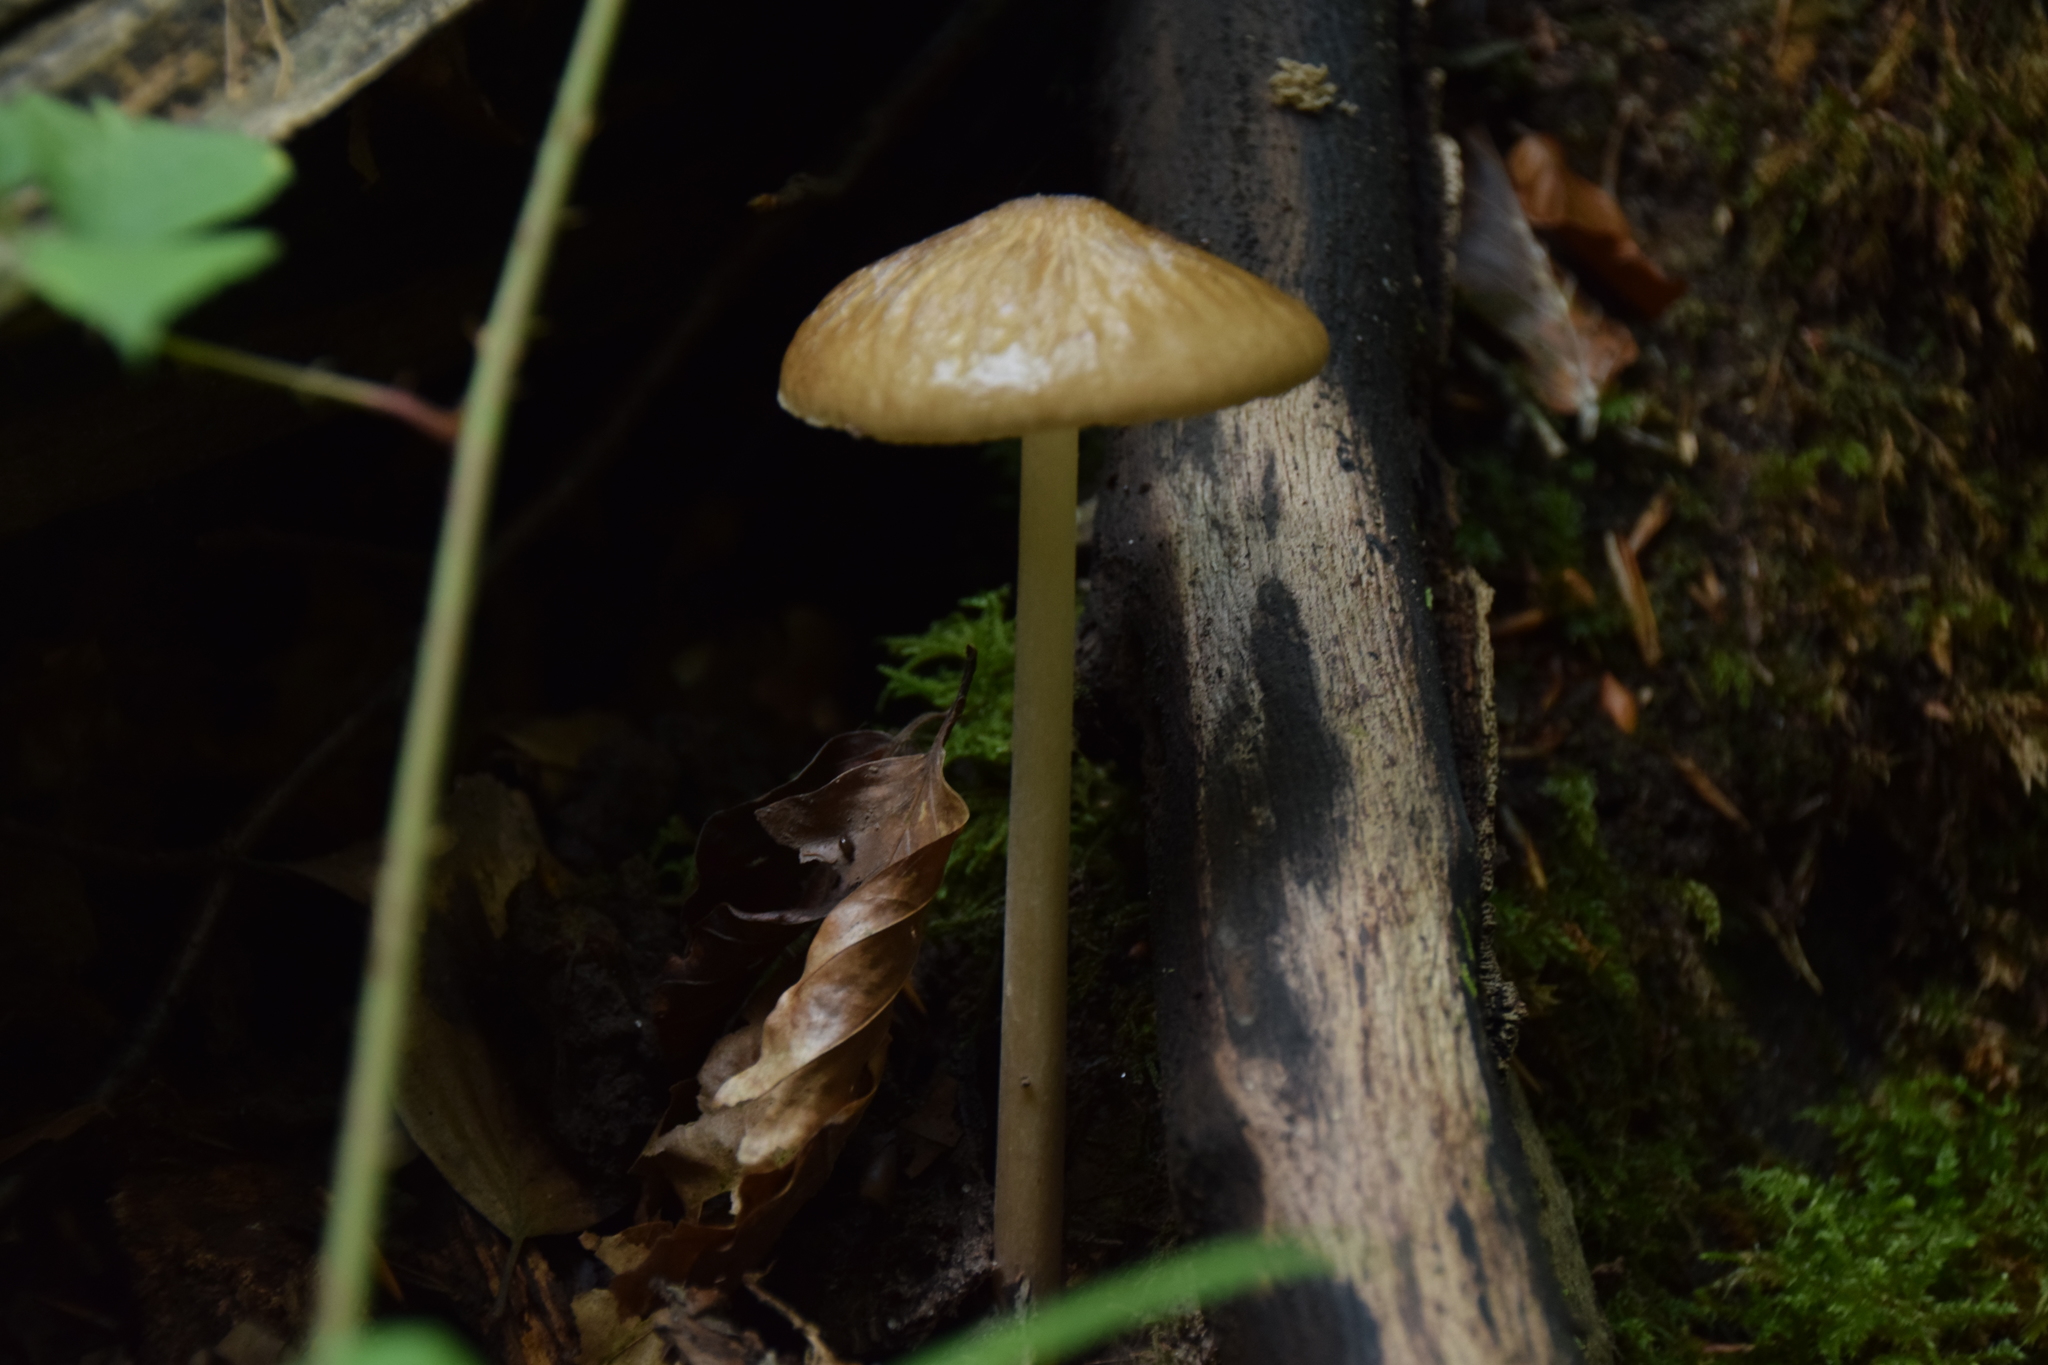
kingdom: Fungi
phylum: Basidiomycota
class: Agaricomycetes
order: Agaricales
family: Physalacriaceae
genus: Hymenopellis
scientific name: Hymenopellis radicata
